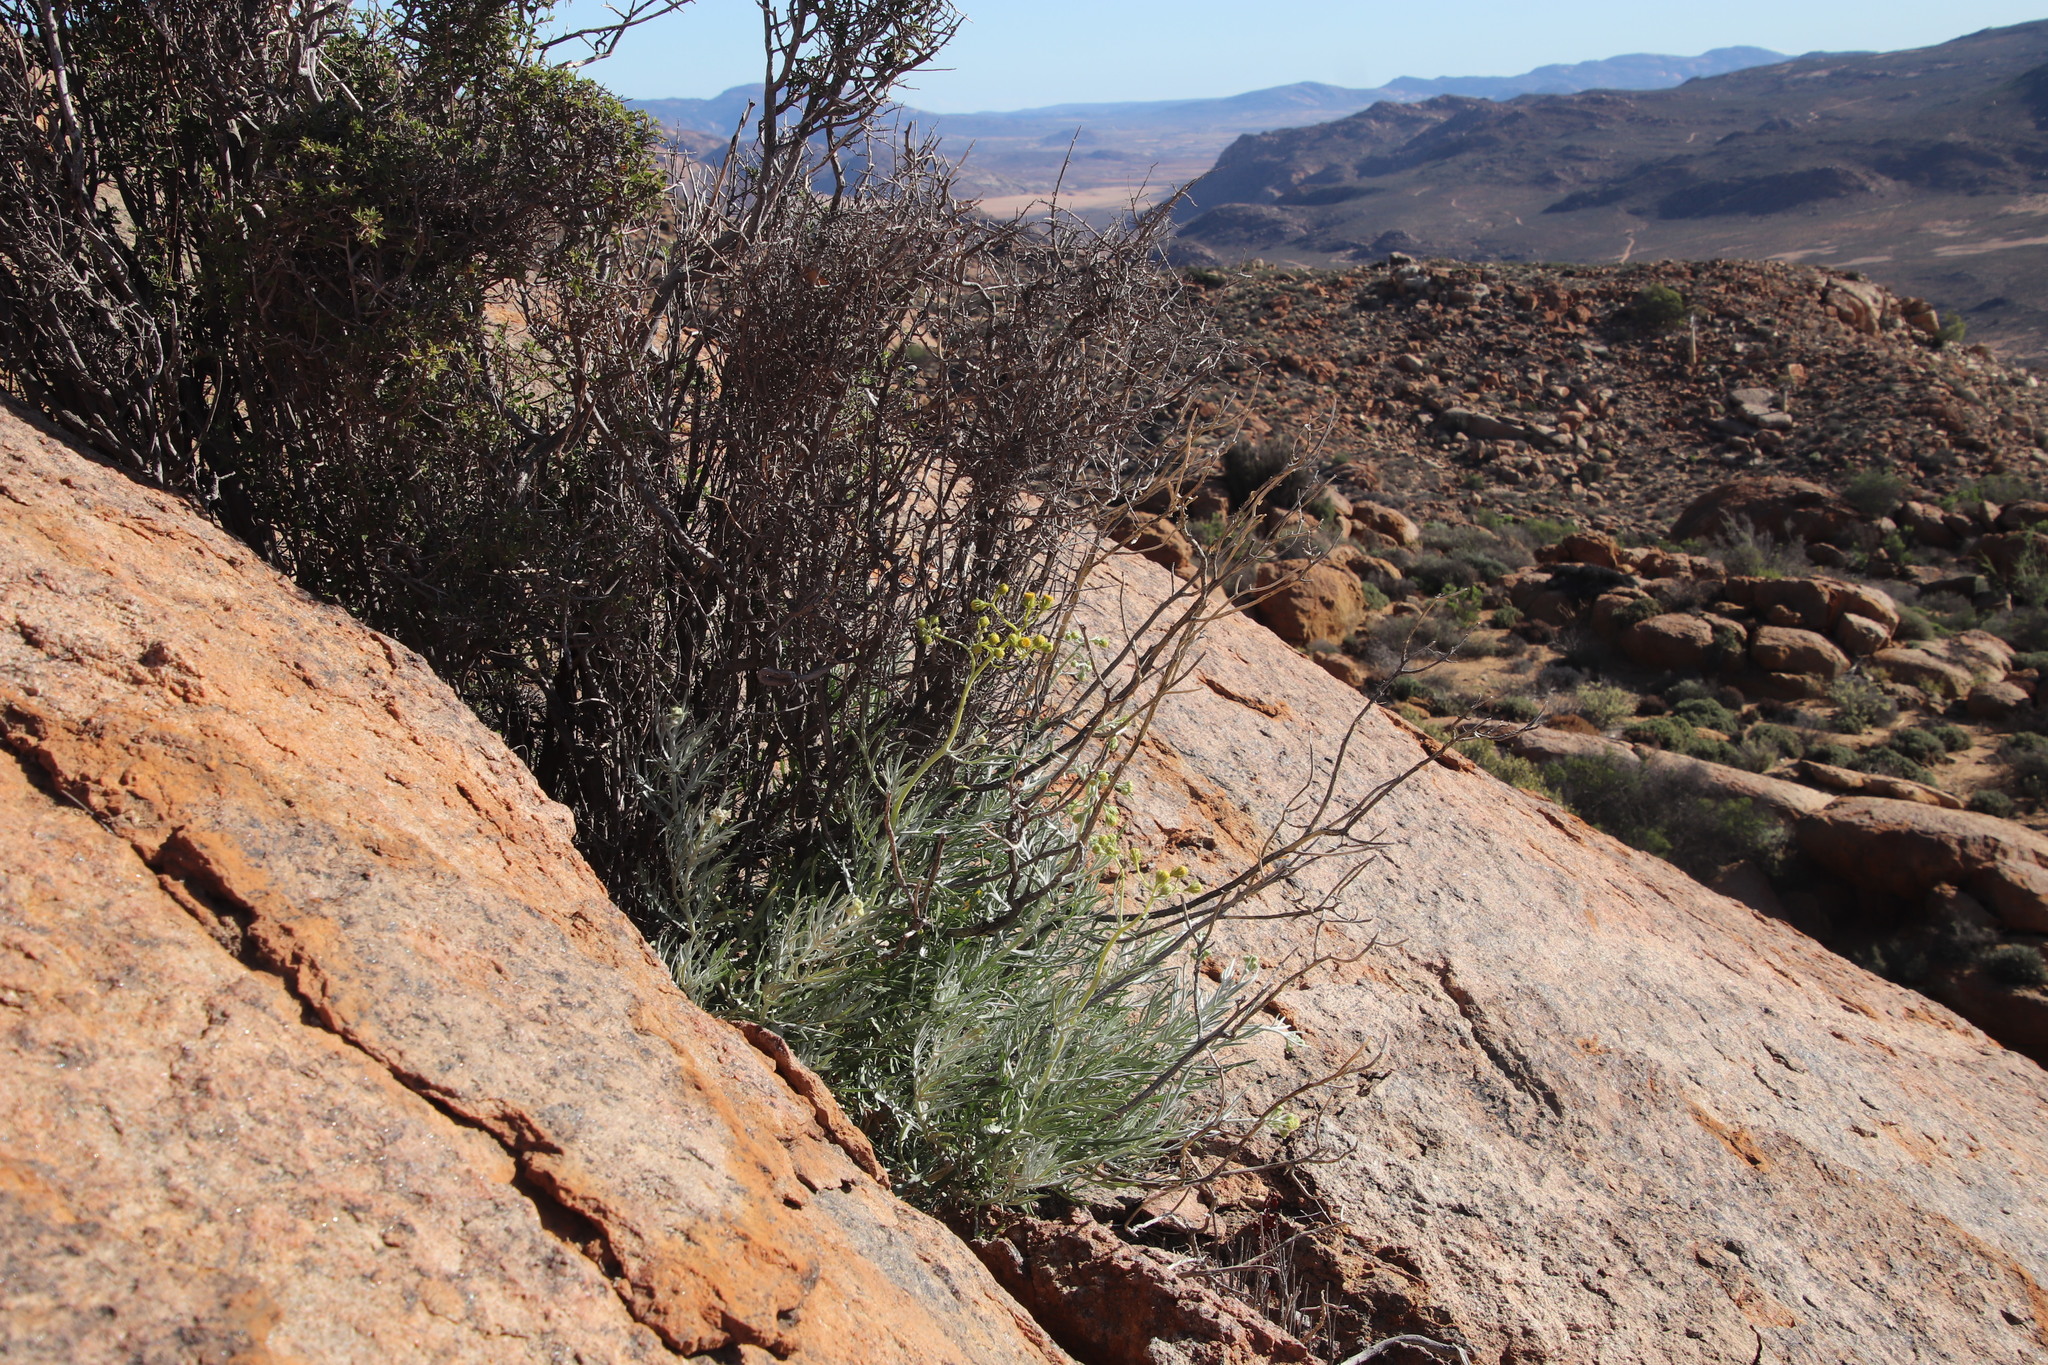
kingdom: Plantae
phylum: Tracheophyta
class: Magnoliopsida
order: Asterales
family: Asteraceae
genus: Senecio
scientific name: Senecio cinerascens
